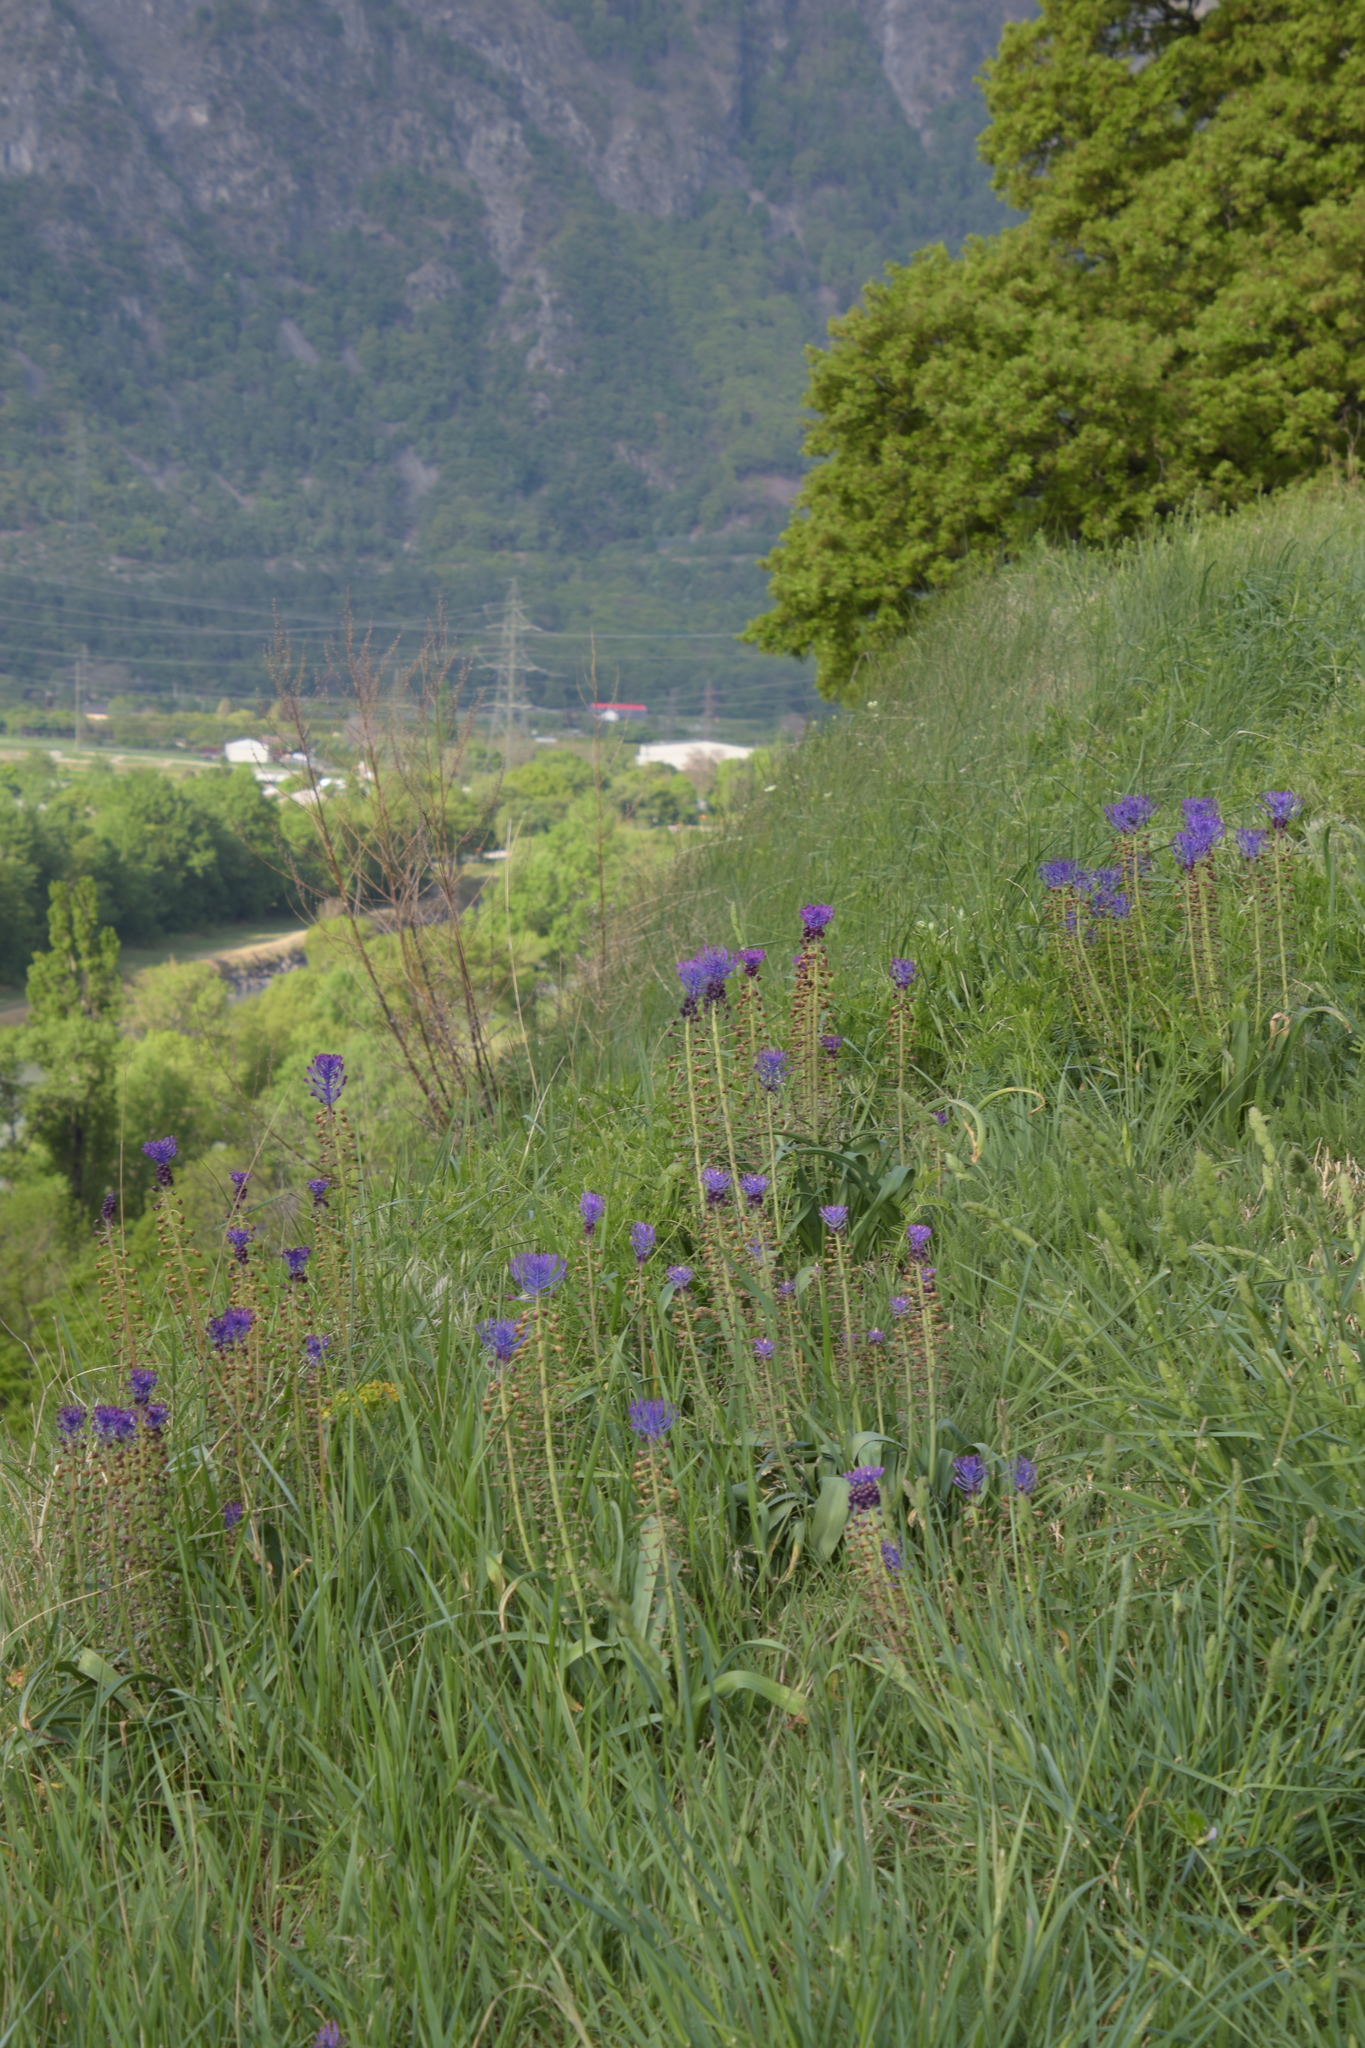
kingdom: Plantae
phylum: Tracheophyta
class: Liliopsida
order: Asparagales
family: Asparagaceae
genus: Muscari
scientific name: Muscari comosum
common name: Tassel hyacinth
